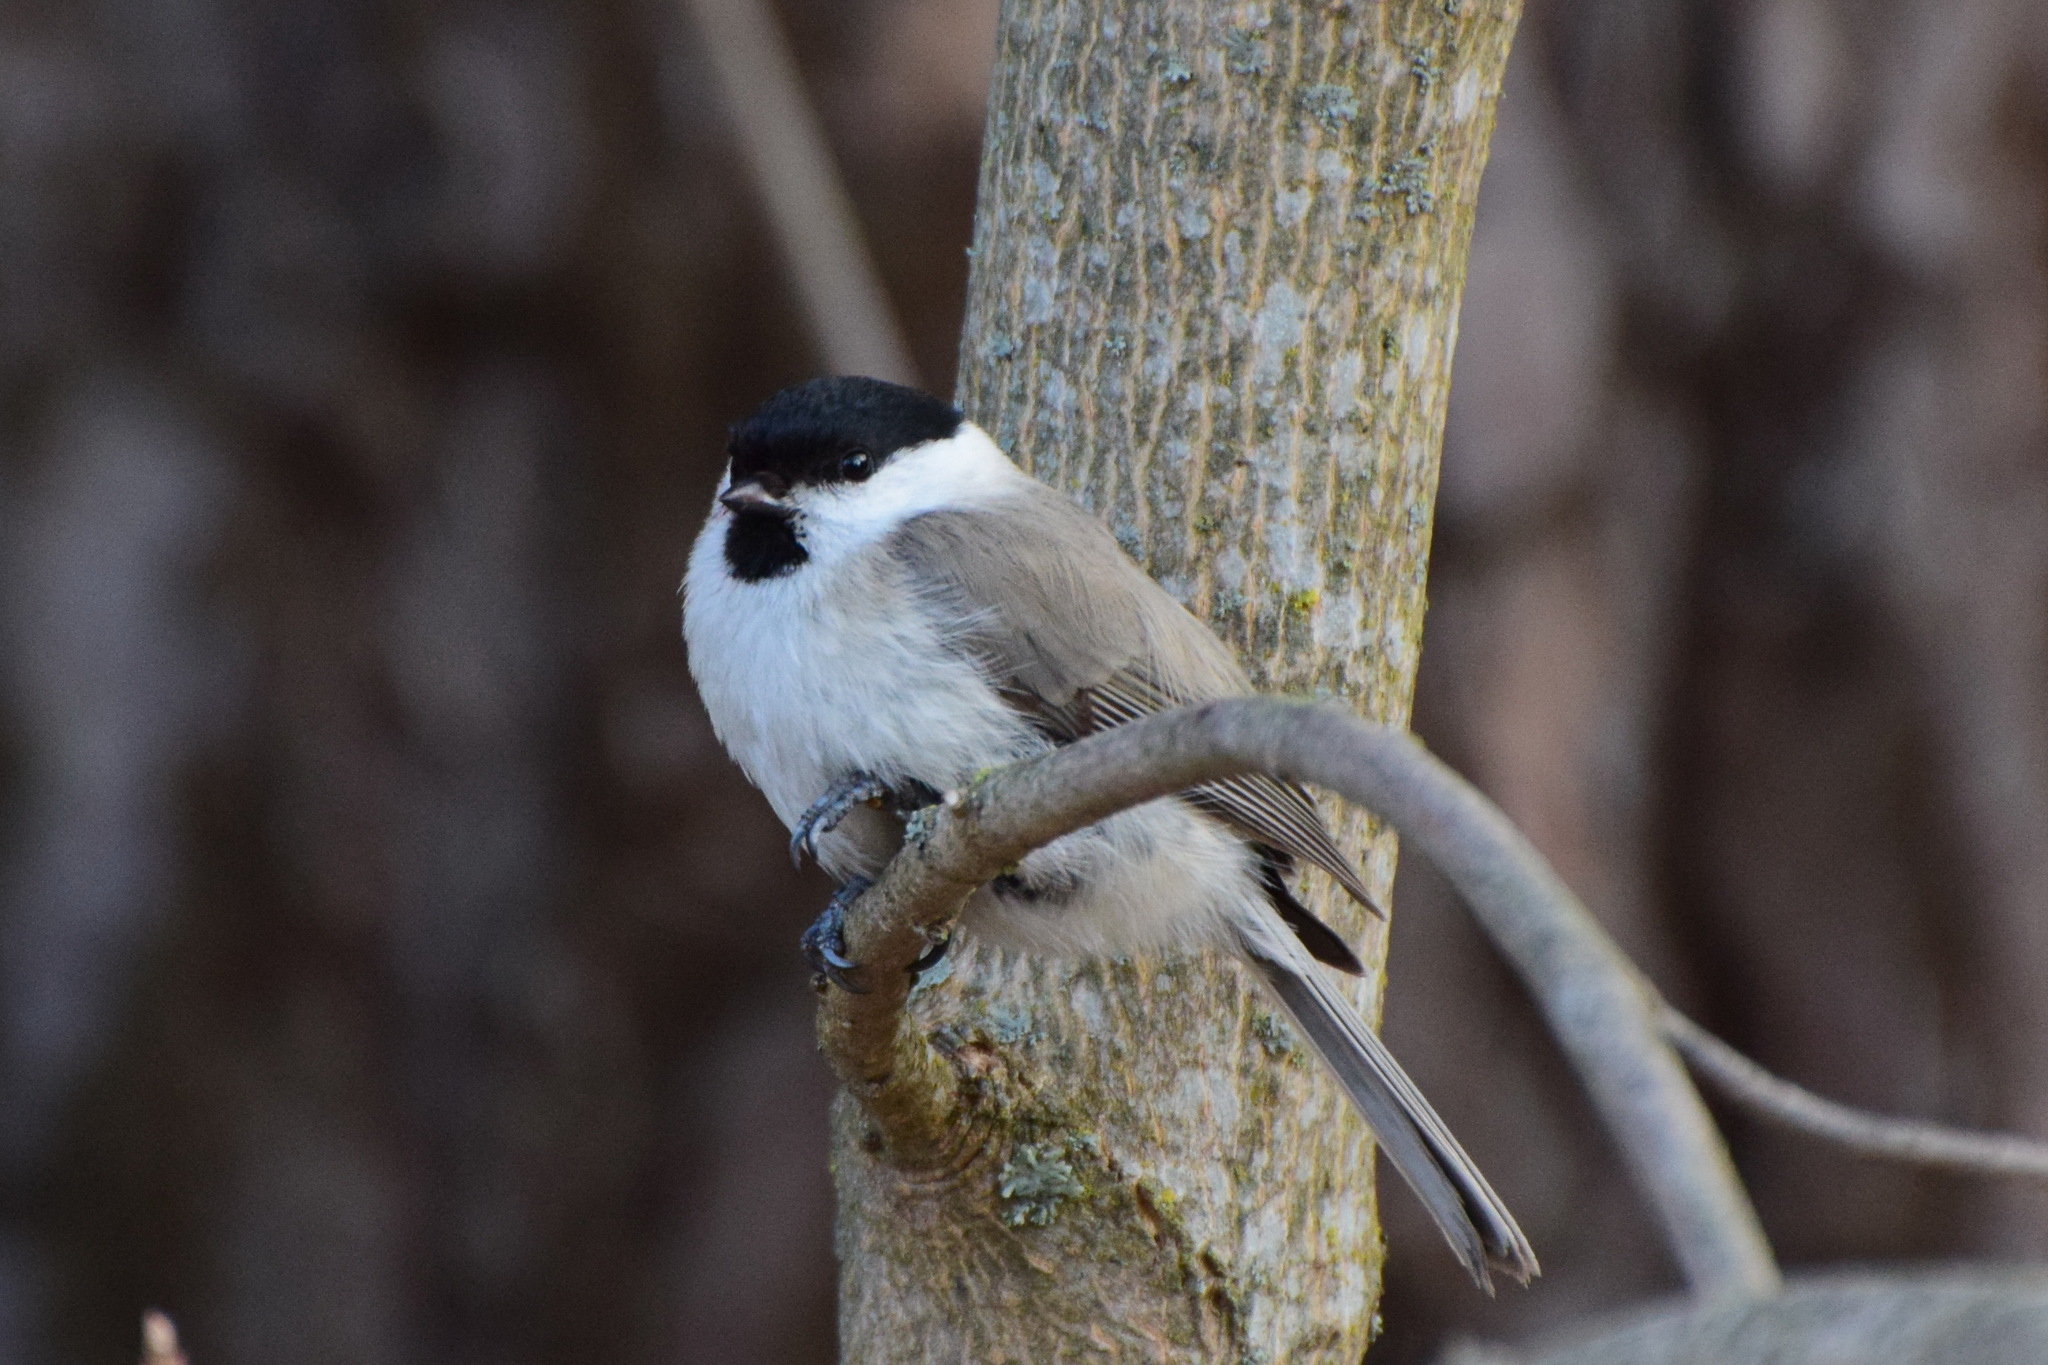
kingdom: Animalia
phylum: Chordata
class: Aves
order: Passeriformes
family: Paridae
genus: Poecile
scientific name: Poecile palustris
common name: Marsh tit
